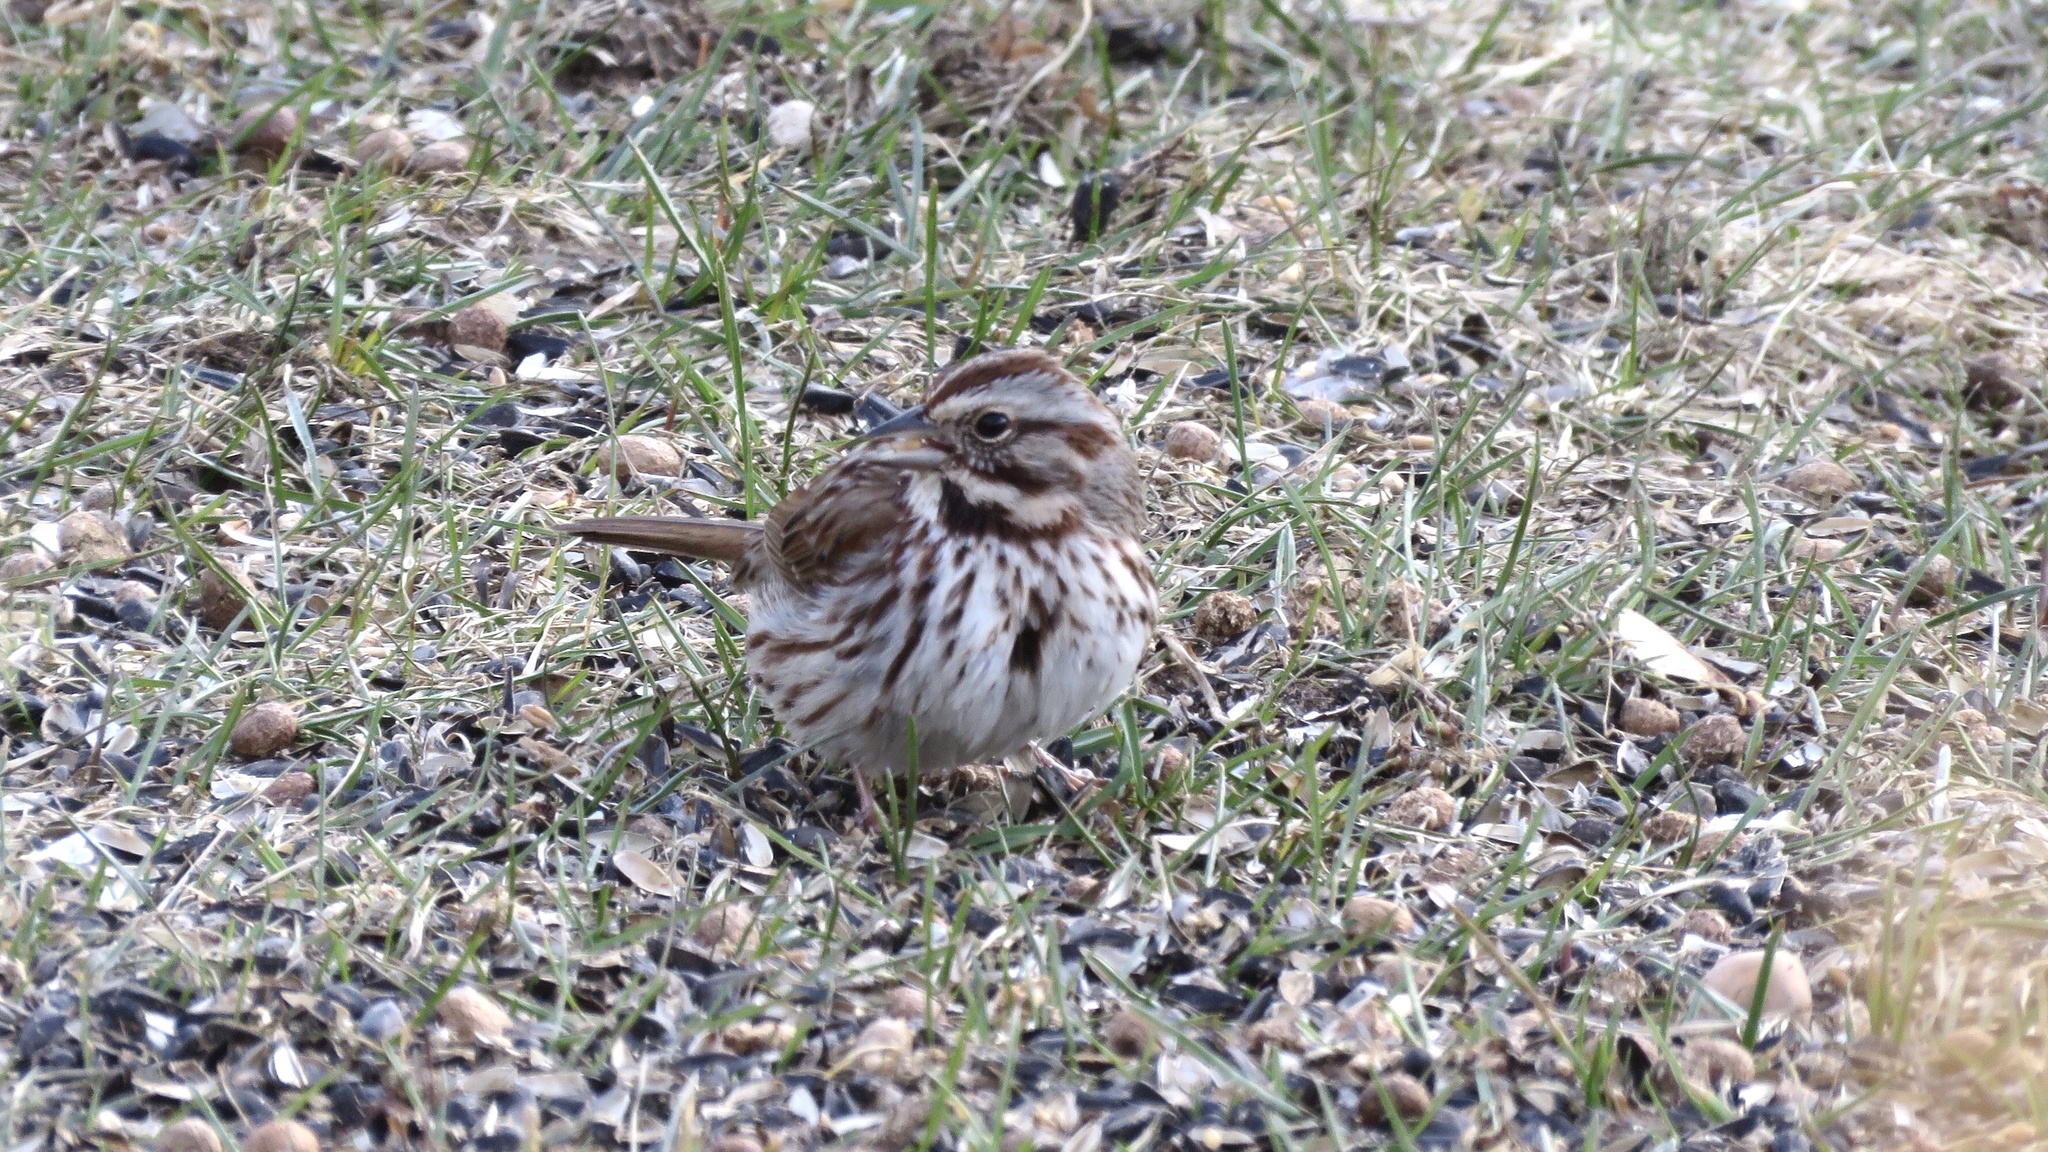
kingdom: Animalia
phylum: Chordata
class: Aves
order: Passeriformes
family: Passerellidae
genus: Melospiza
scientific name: Melospiza melodia
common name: Song sparrow
